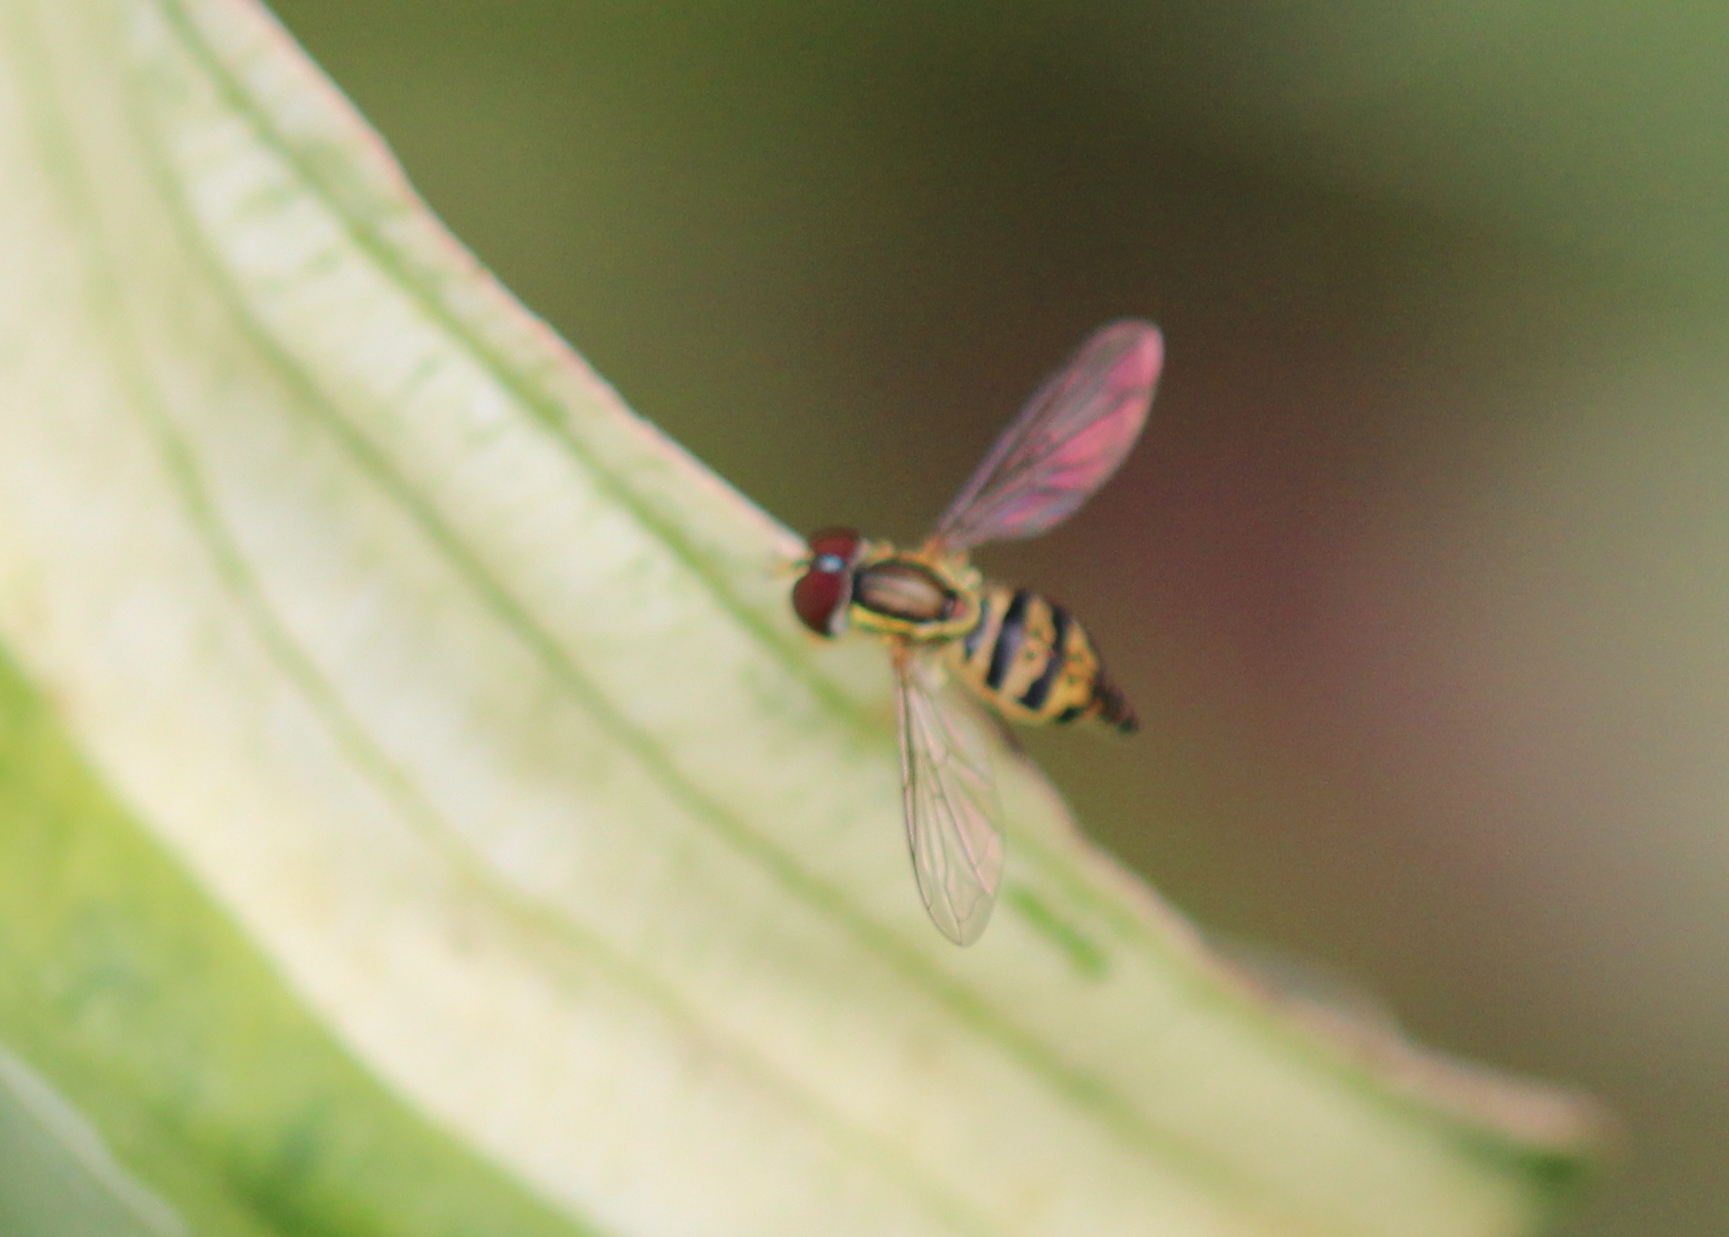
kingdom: Animalia
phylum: Arthropoda
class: Insecta
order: Diptera
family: Syrphidae
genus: Toxomerus
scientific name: Toxomerus geminatus
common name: Eastern calligrapher
